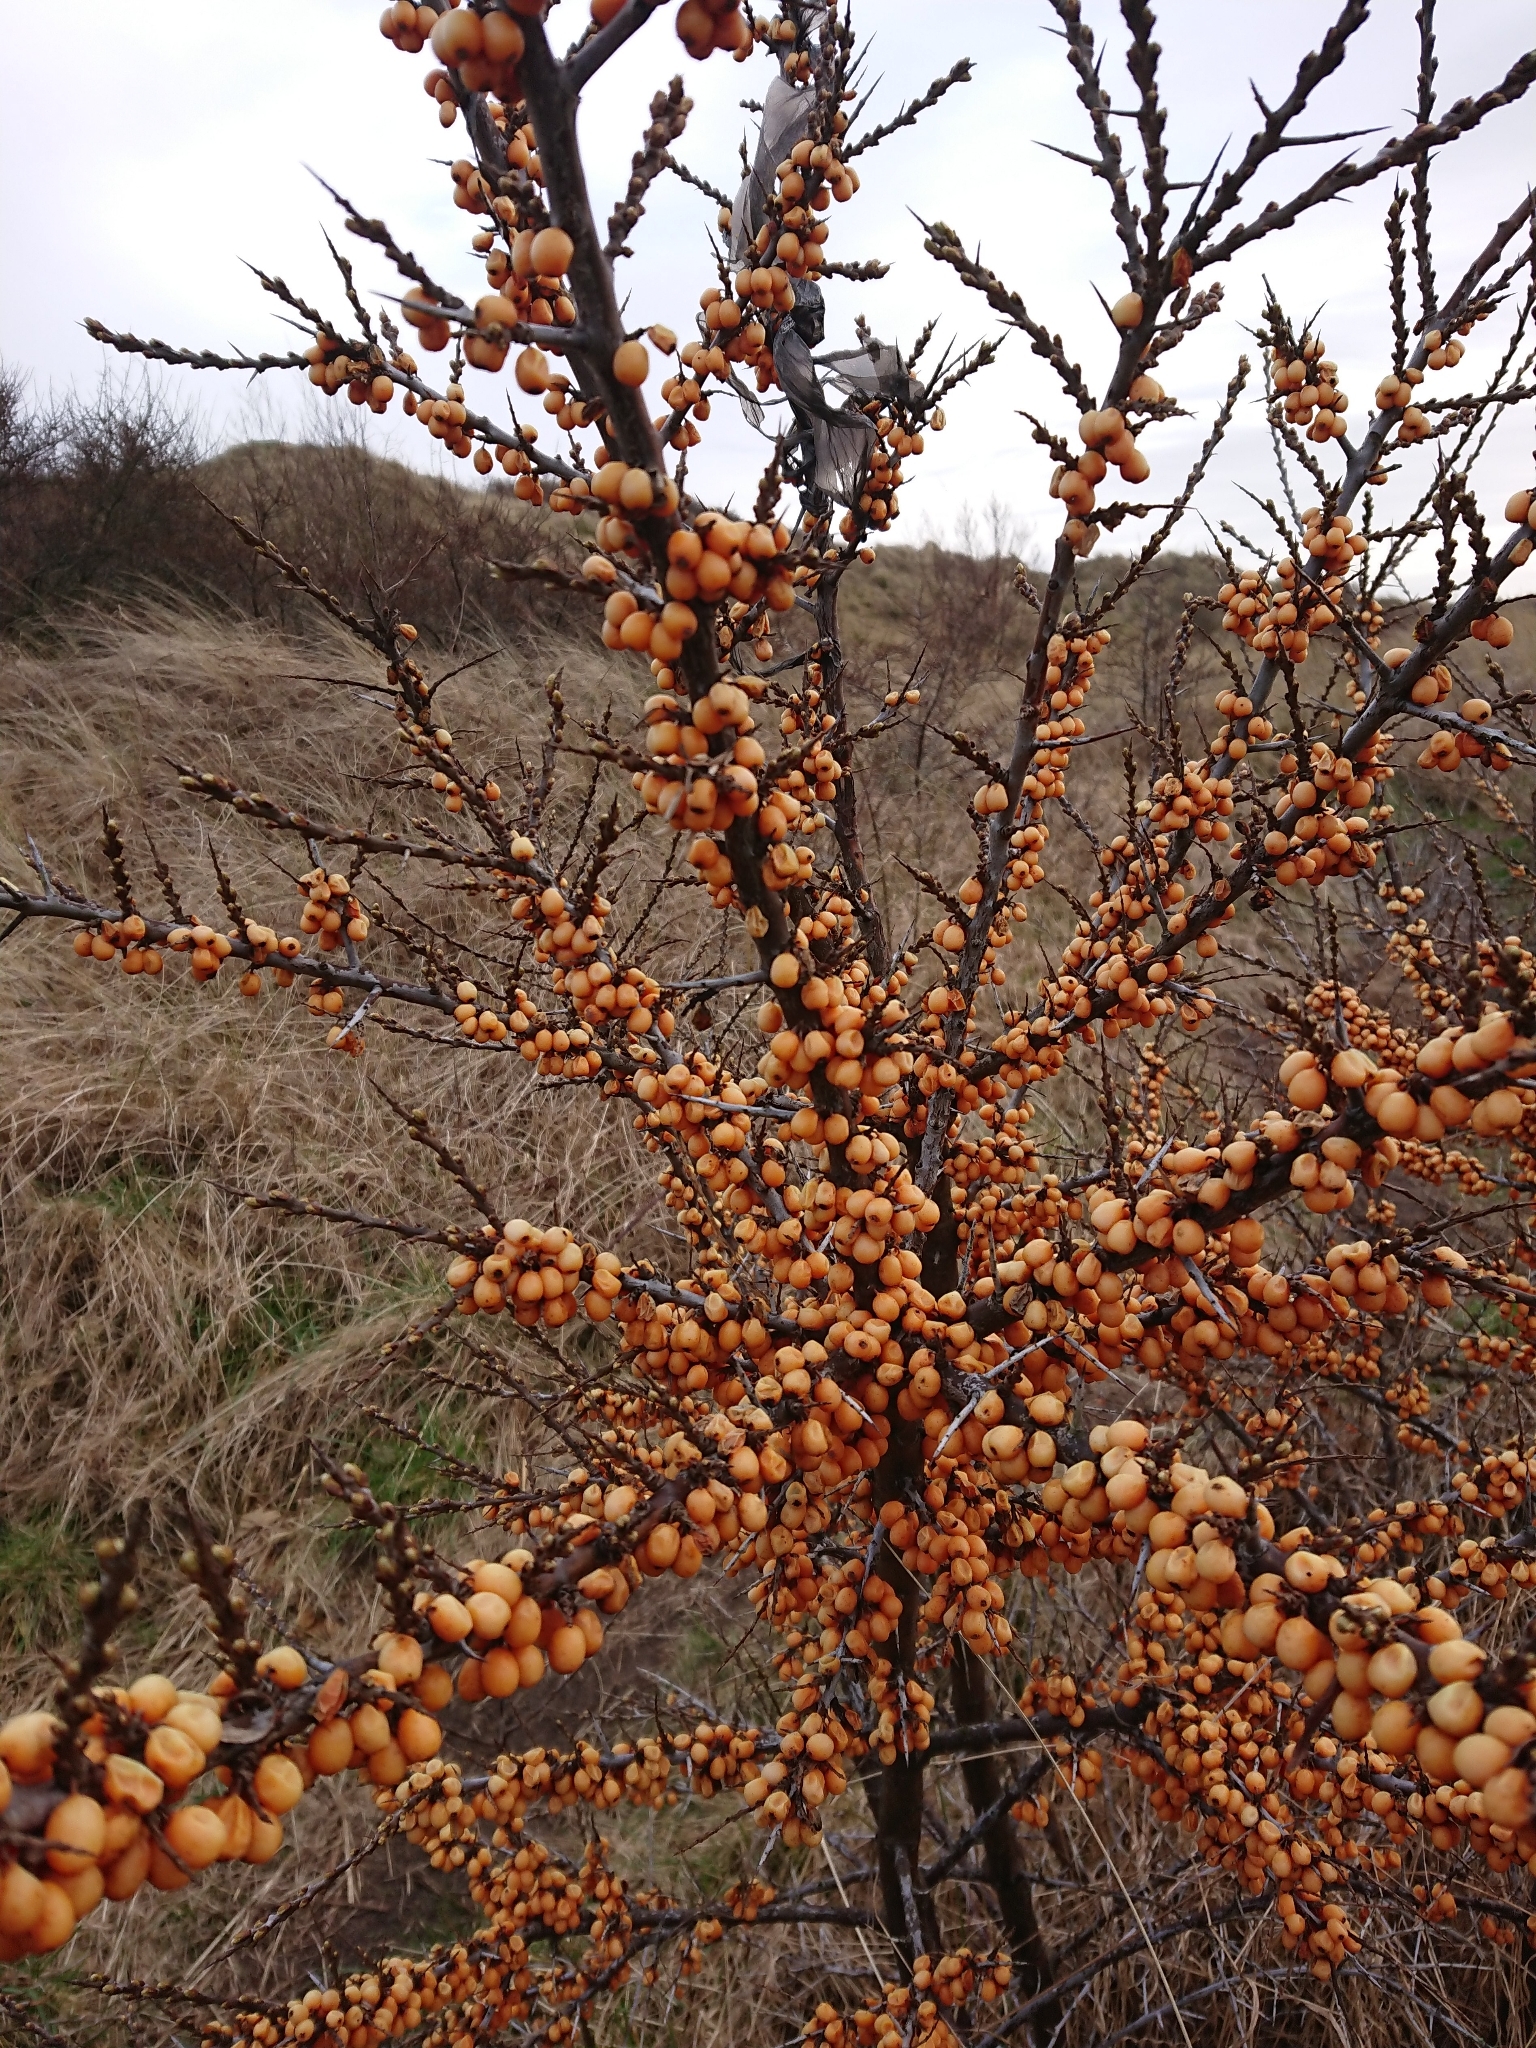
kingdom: Plantae
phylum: Tracheophyta
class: Magnoliopsida
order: Rosales
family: Elaeagnaceae
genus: Hippophae
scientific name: Hippophae rhamnoides
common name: Sea-buckthorn
